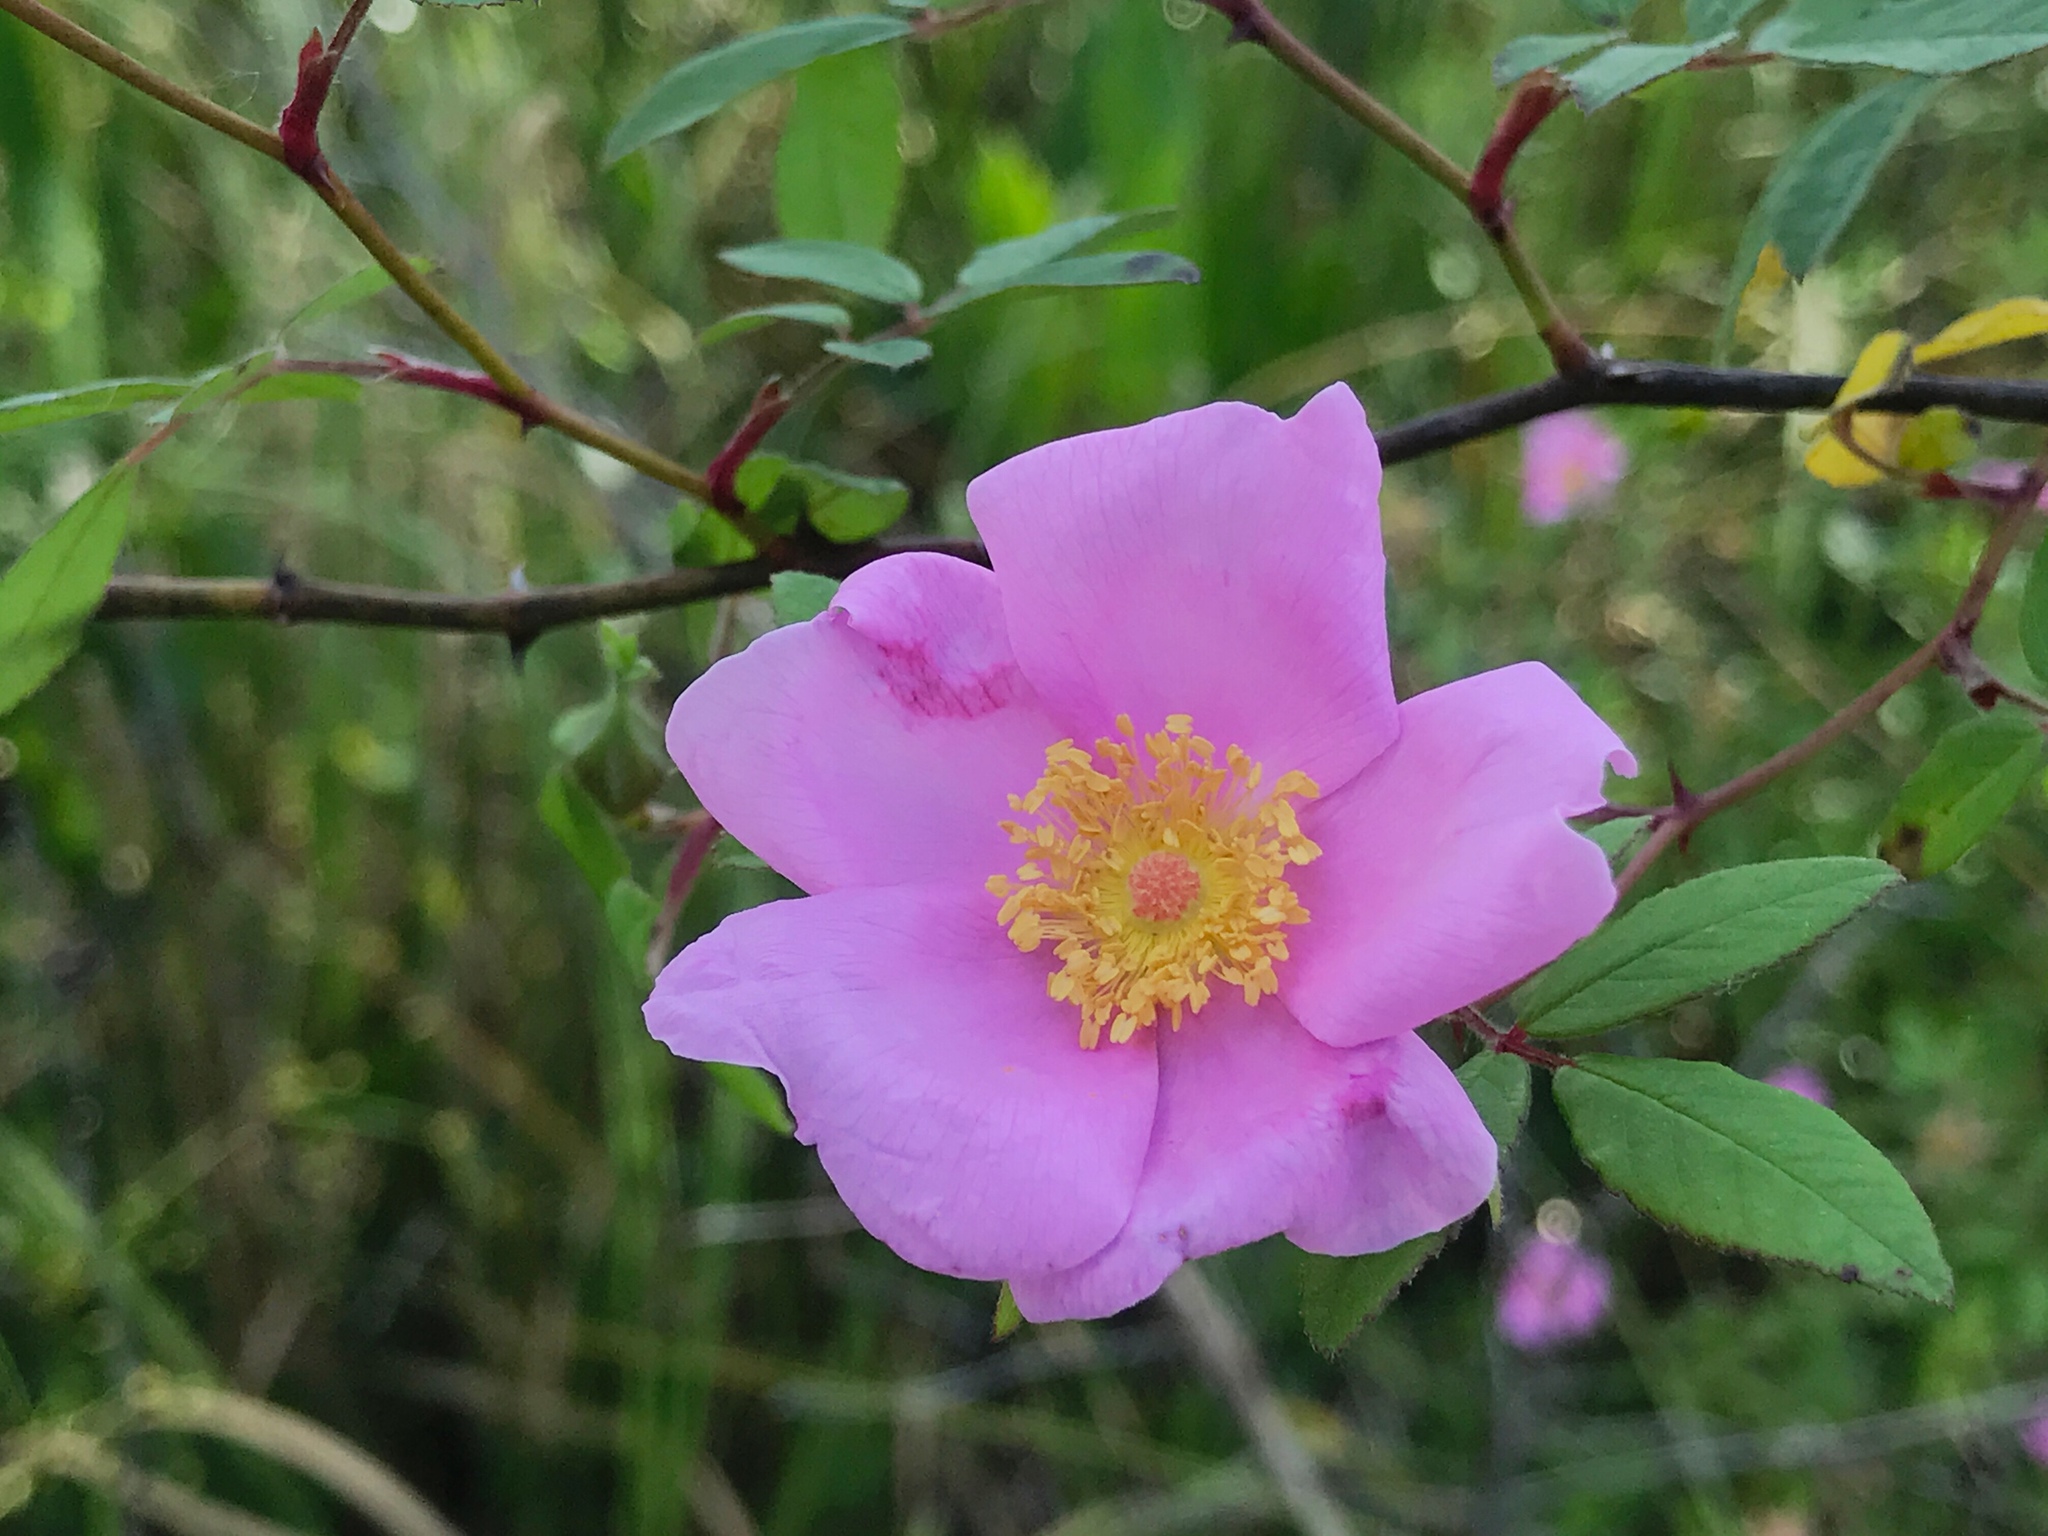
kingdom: Plantae
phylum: Tracheophyta
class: Magnoliopsida
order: Rosales
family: Rosaceae
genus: Rosa
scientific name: Rosa palustris
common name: Swamp rose
